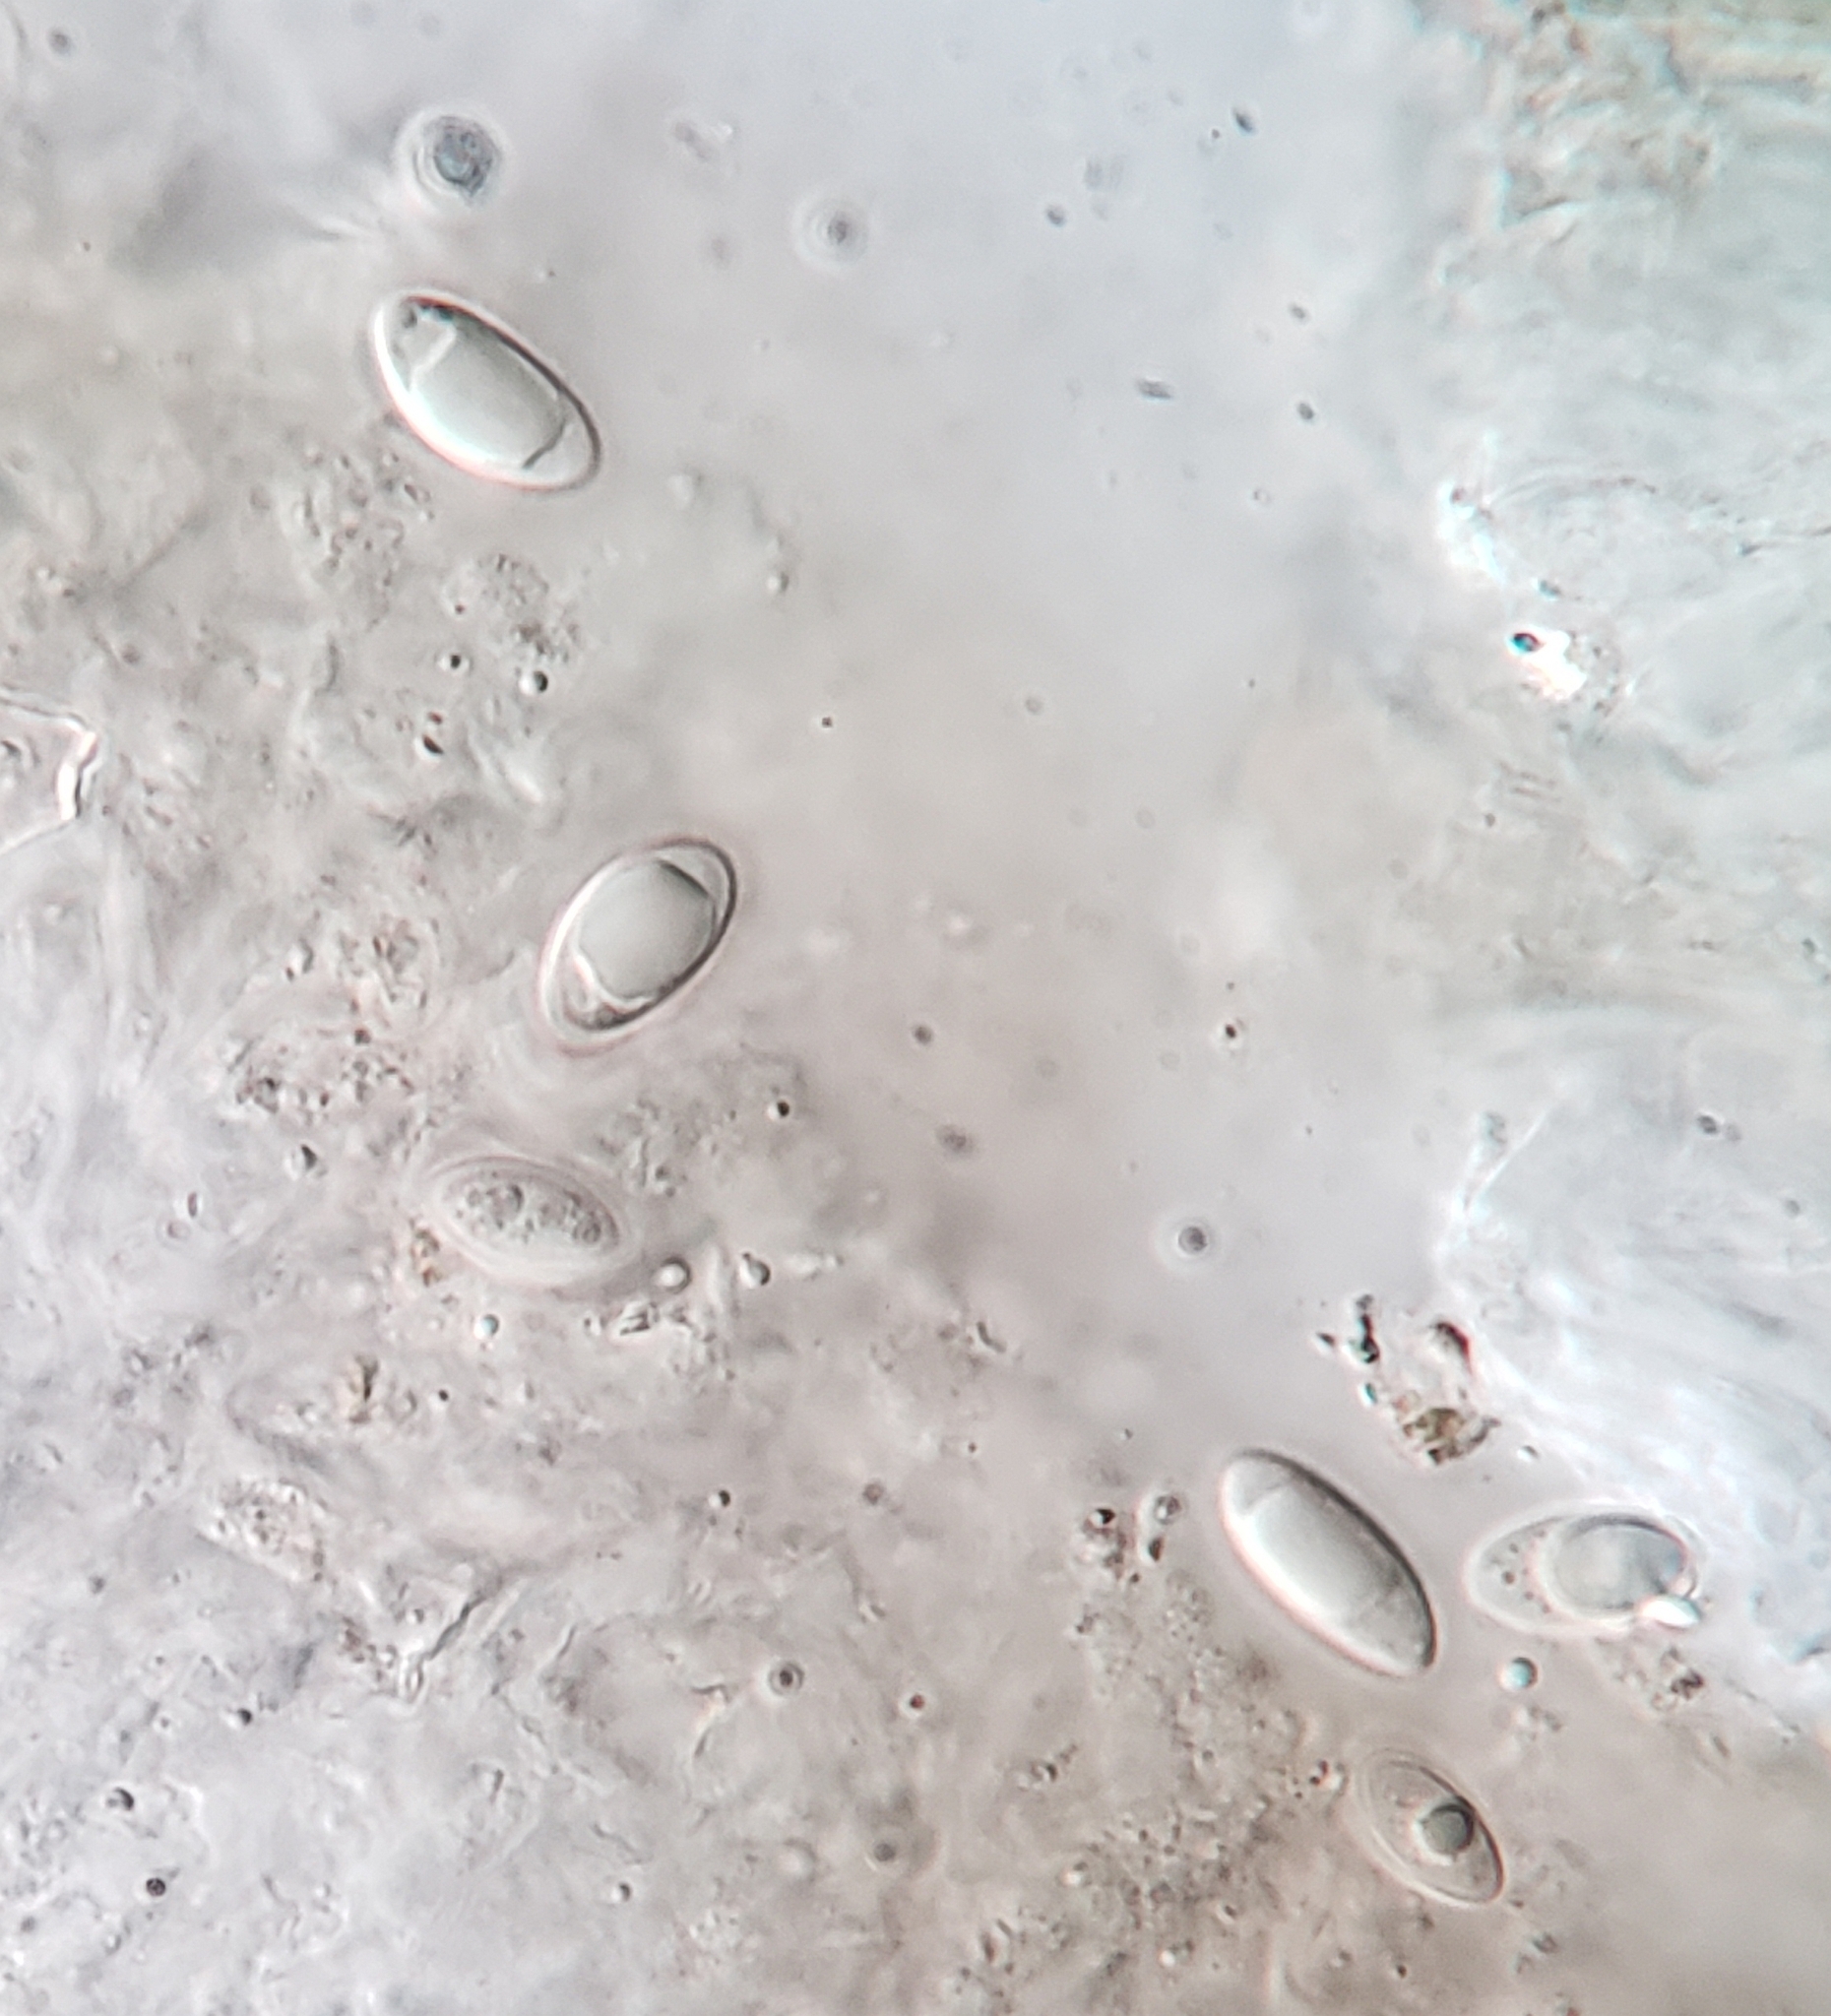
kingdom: Fungi
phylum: Ascomycota
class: Lecanoromycetes
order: Lecideales
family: Lecideaceae
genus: Porpidia
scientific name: Porpidia crustulata
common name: Concentric boulder lichen
